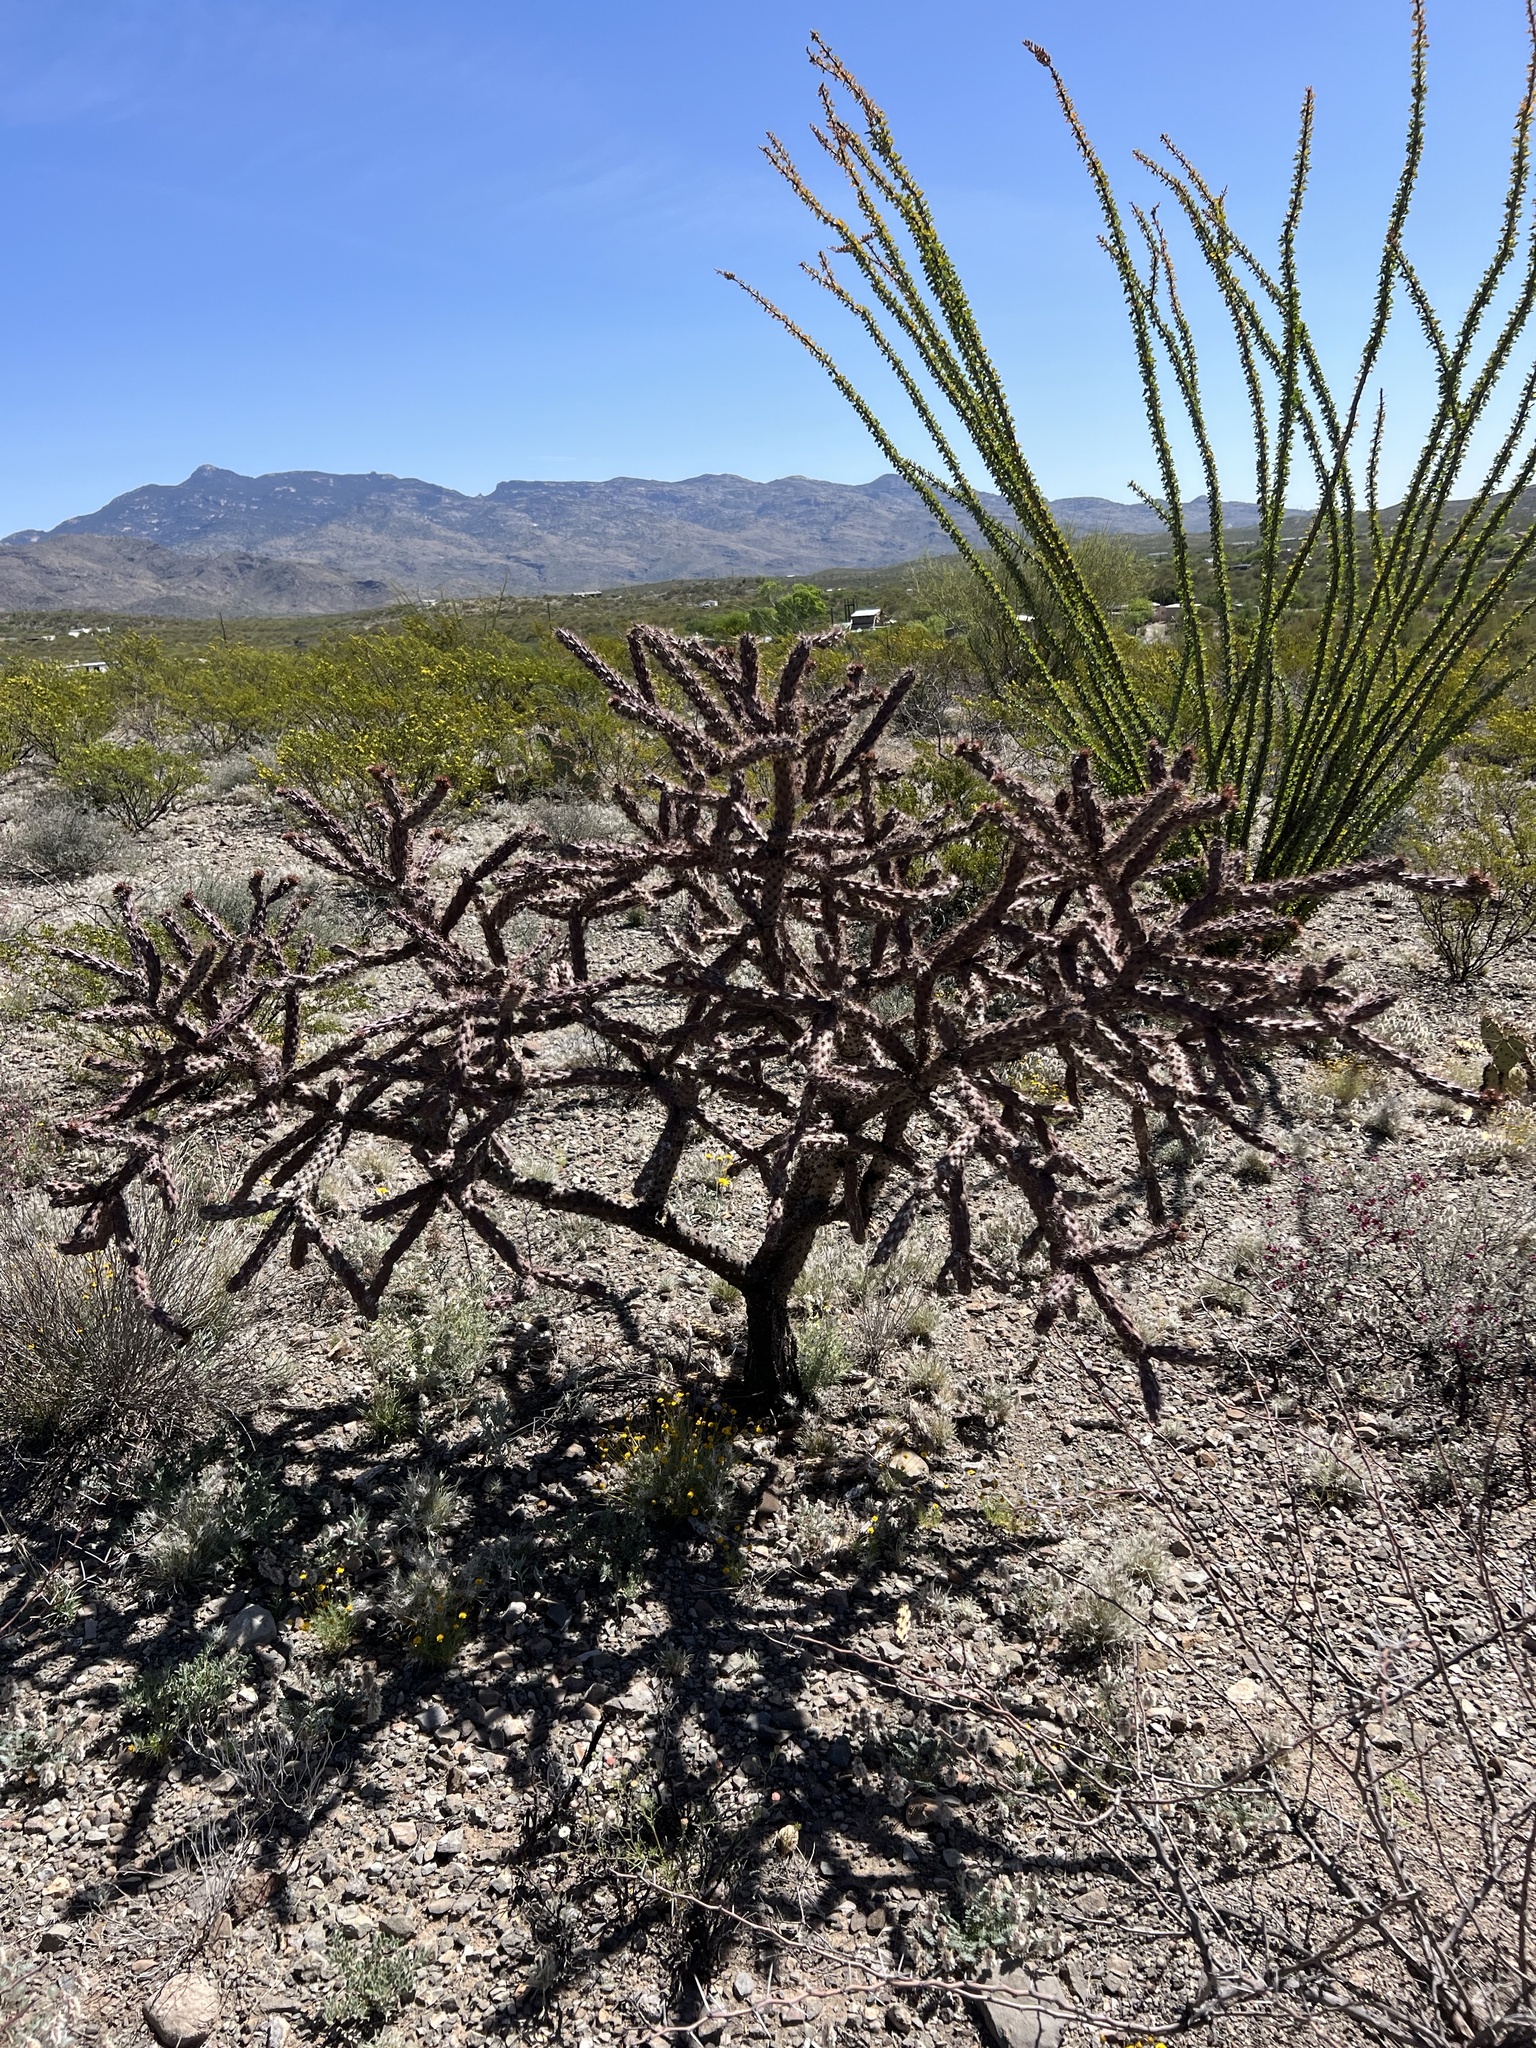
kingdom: Plantae
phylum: Tracheophyta
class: Magnoliopsida
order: Caryophyllales
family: Cactaceae
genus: Cylindropuntia
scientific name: Cylindropuntia thurberi
